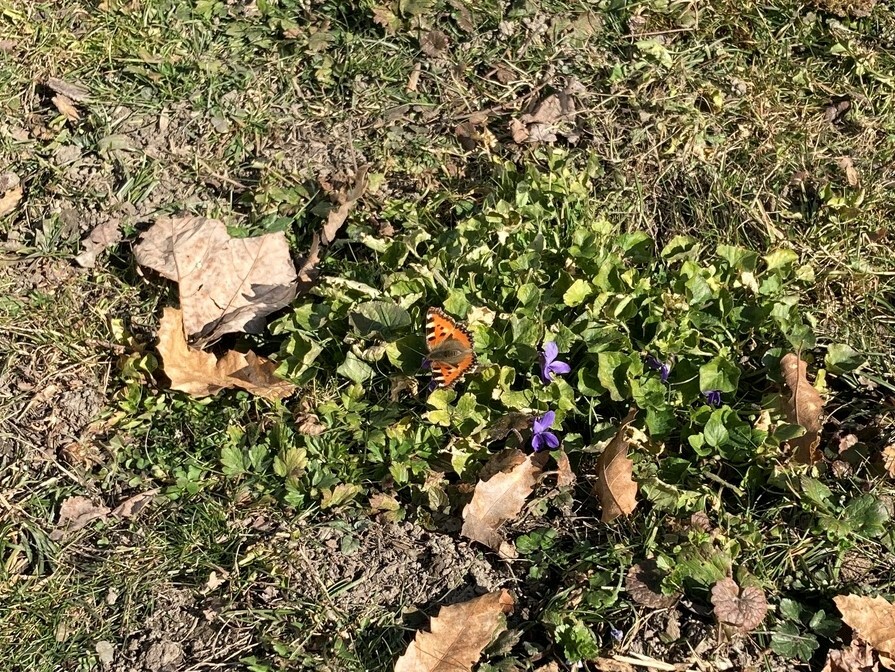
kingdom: Animalia
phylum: Arthropoda
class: Insecta
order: Lepidoptera
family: Nymphalidae
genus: Aglais
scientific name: Aglais urticae
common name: Small tortoiseshell
